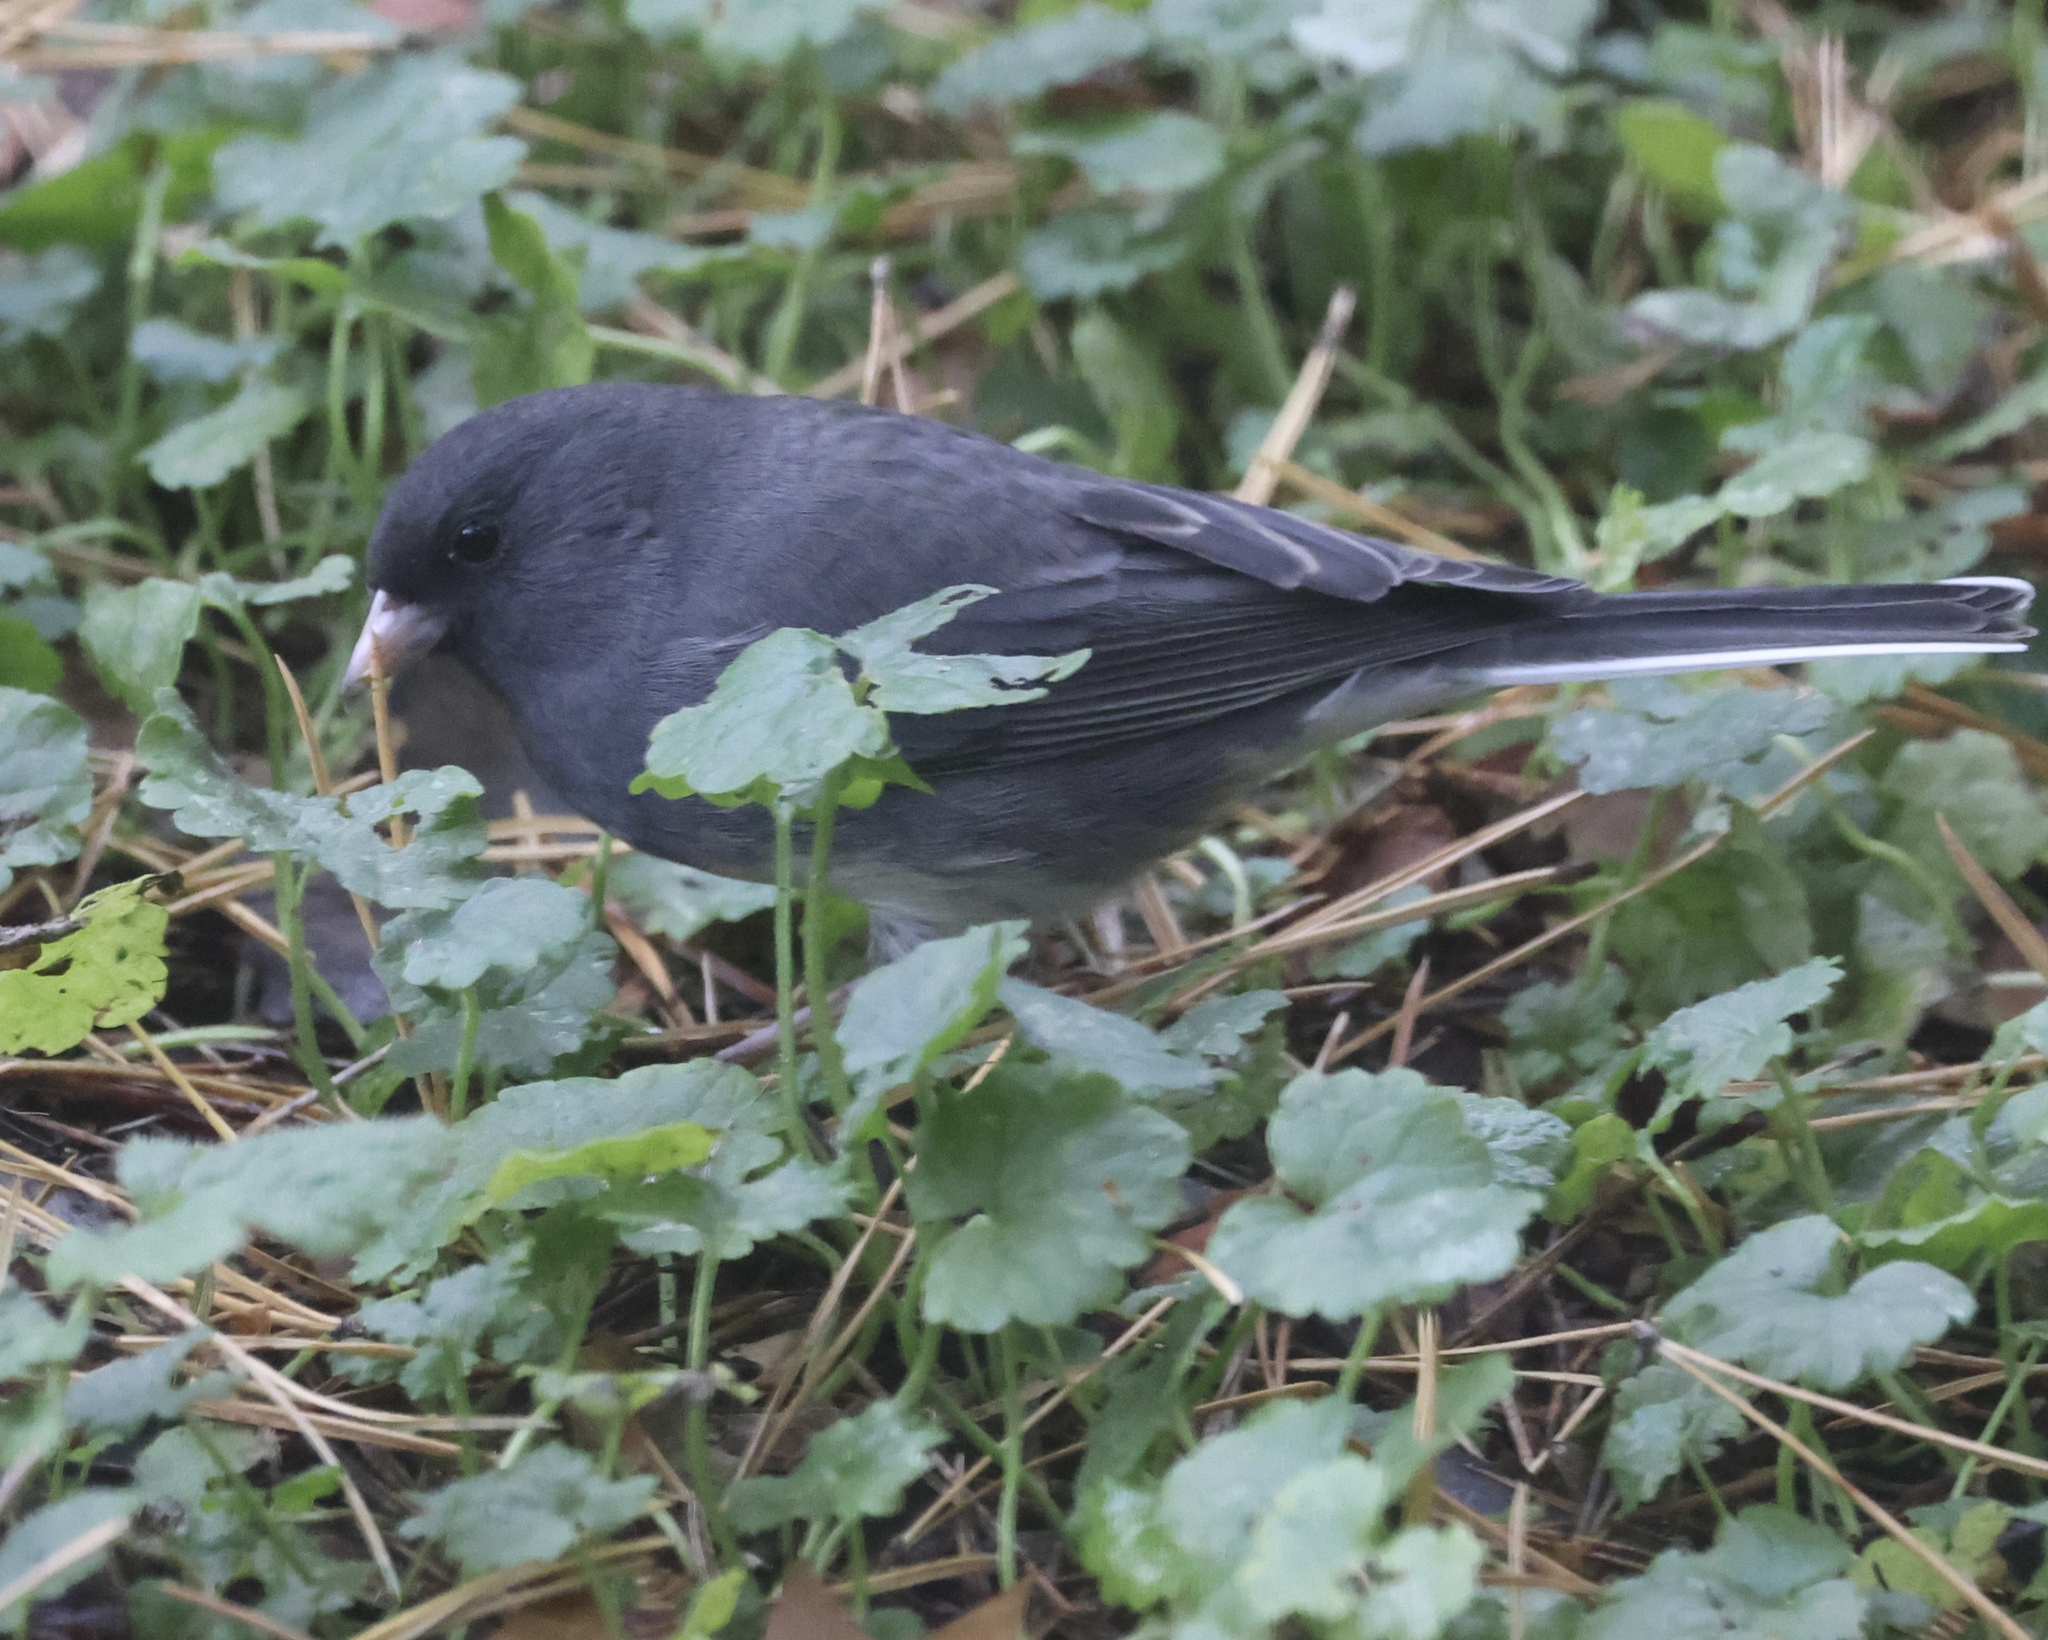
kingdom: Animalia
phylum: Chordata
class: Aves
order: Passeriformes
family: Passerellidae
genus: Junco
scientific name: Junco hyemalis
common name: Dark-eyed junco
